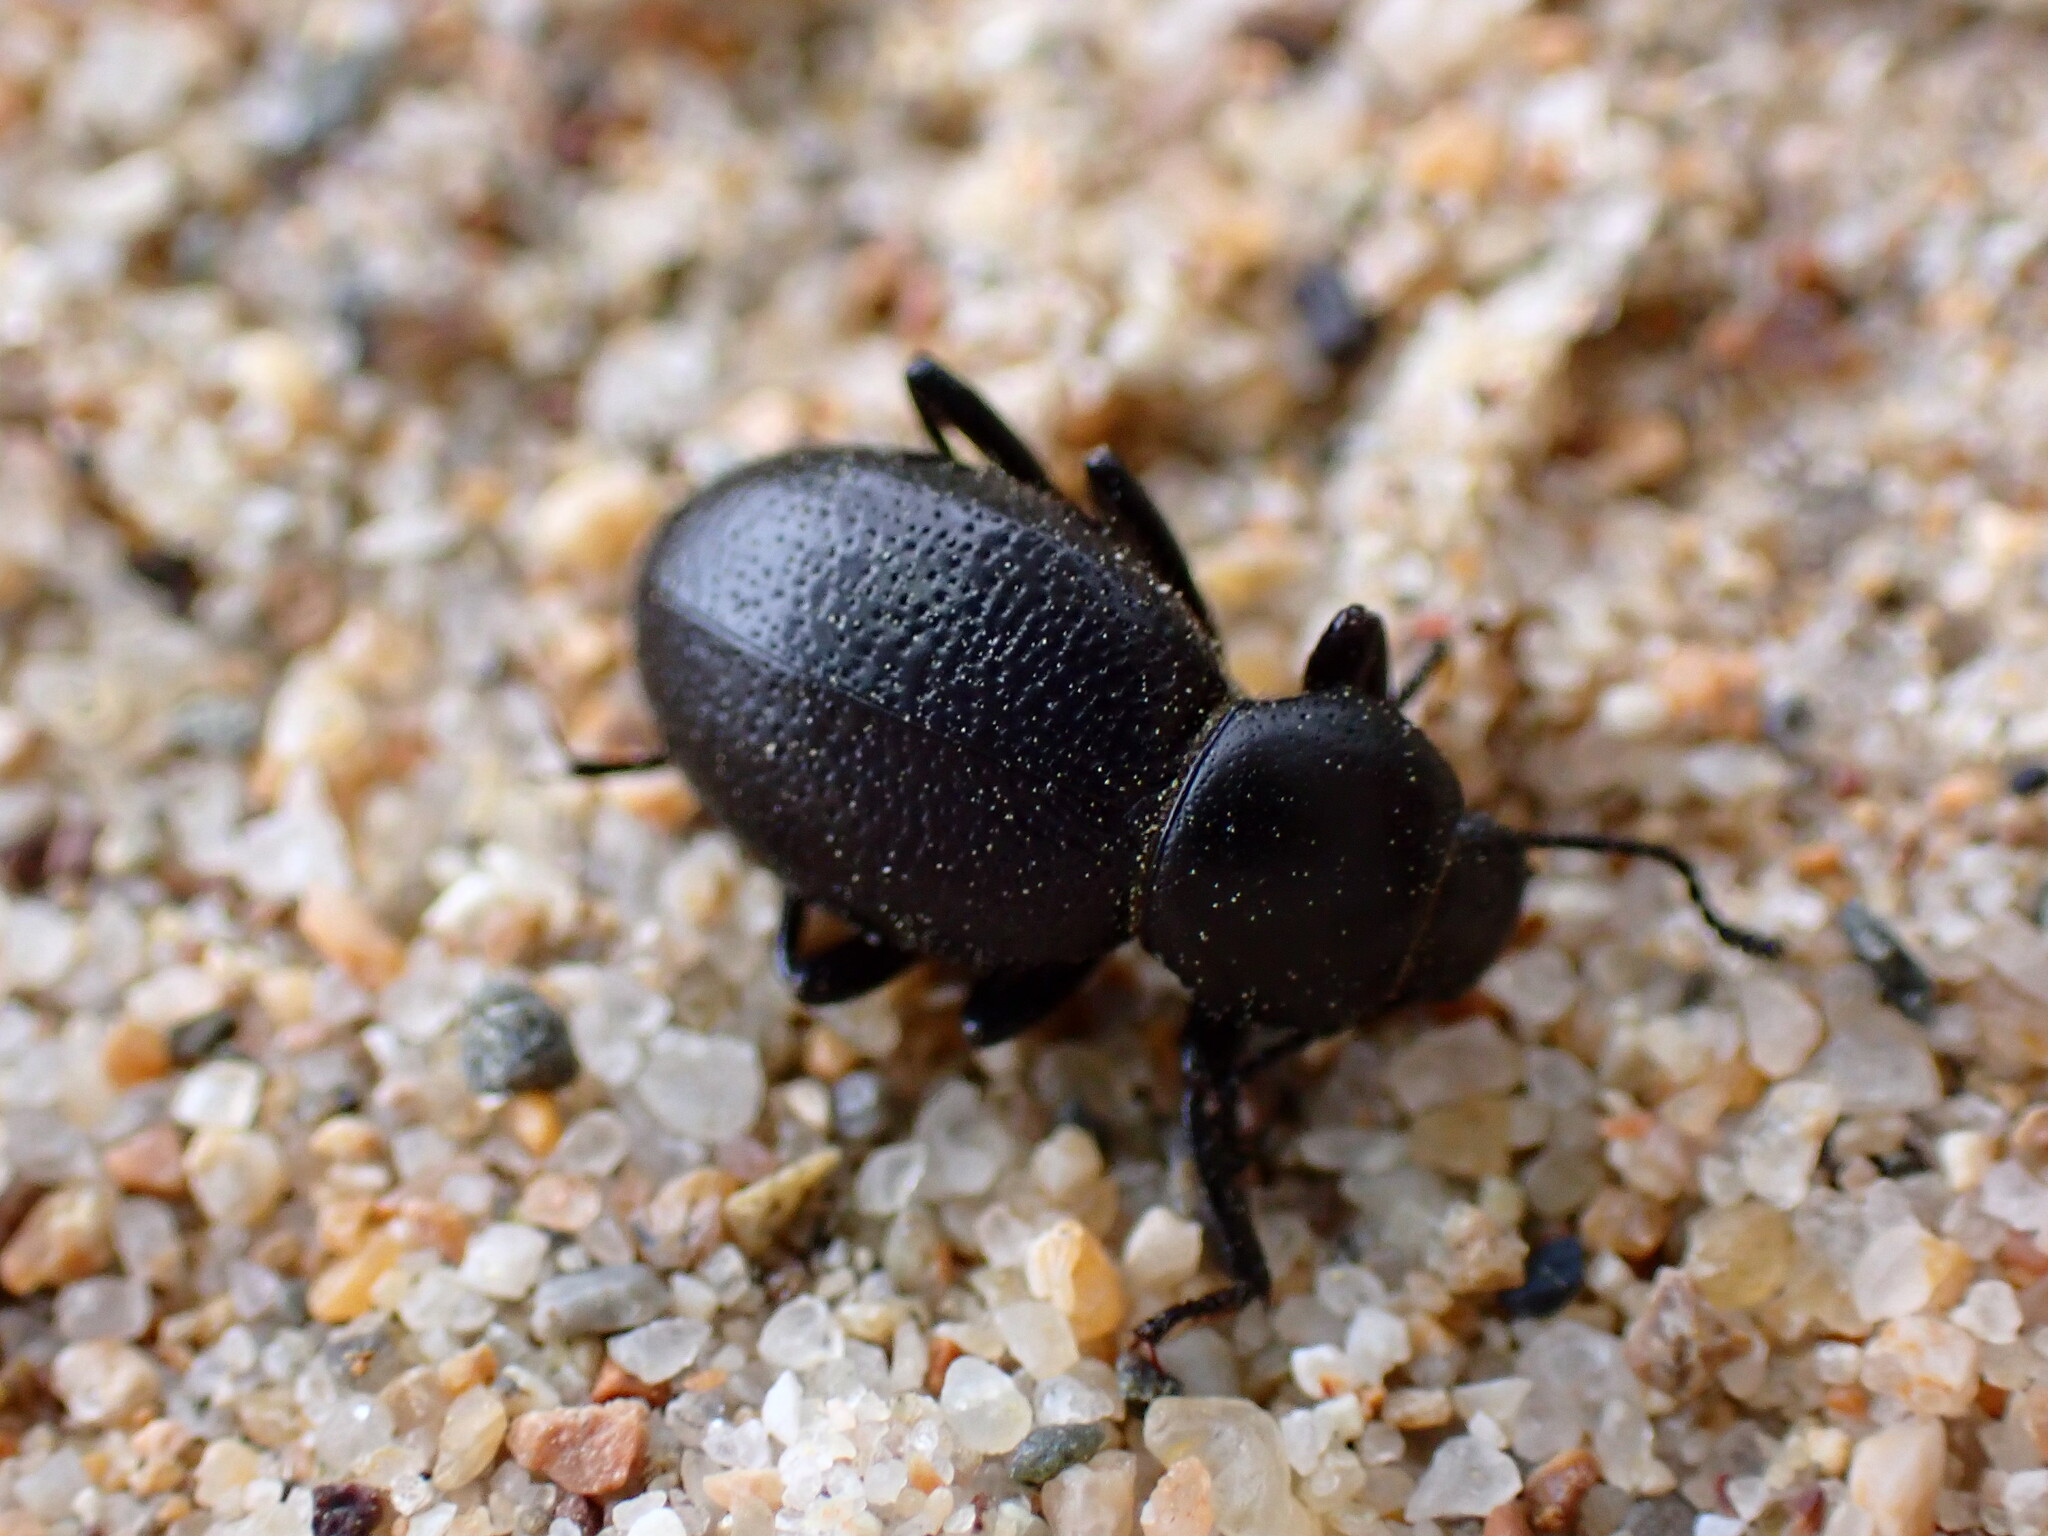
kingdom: Animalia
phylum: Arthropoda
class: Insecta
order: Coleoptera
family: Tenebrionidae
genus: Eleodes
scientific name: Eleodes clavicornis
